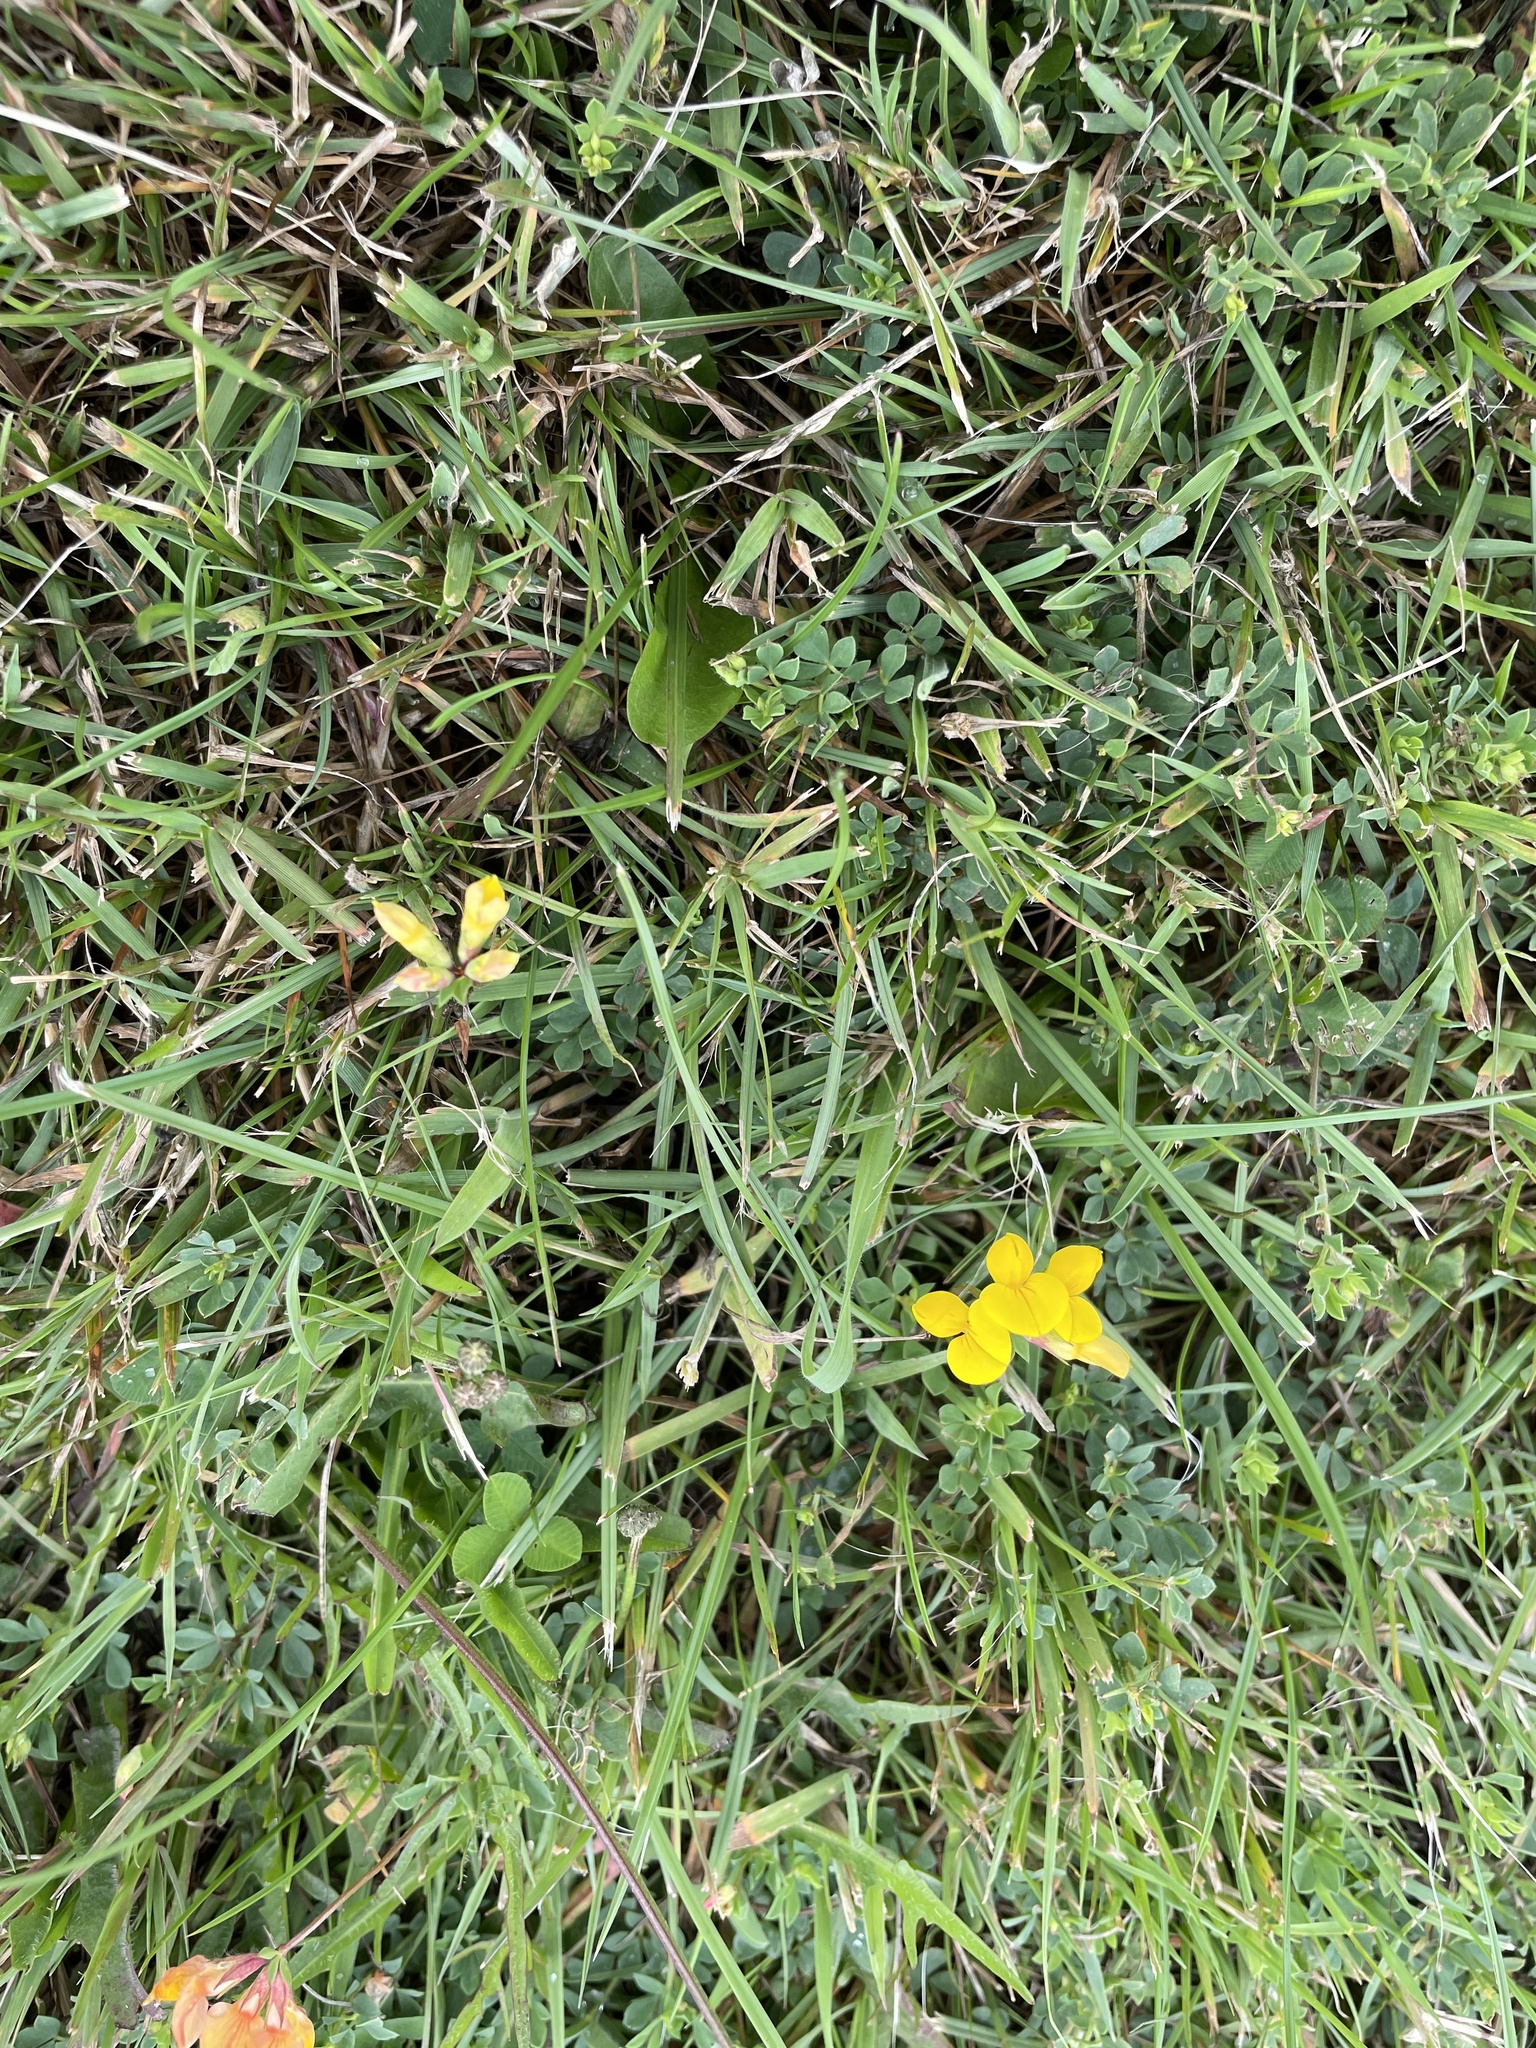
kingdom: Plantae
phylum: Tracheophyta
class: Magnoliopsida
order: Fabales
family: Fabaceae
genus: Lotus
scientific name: Lotus corniculatus
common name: Common bird's-foot-trefoil
